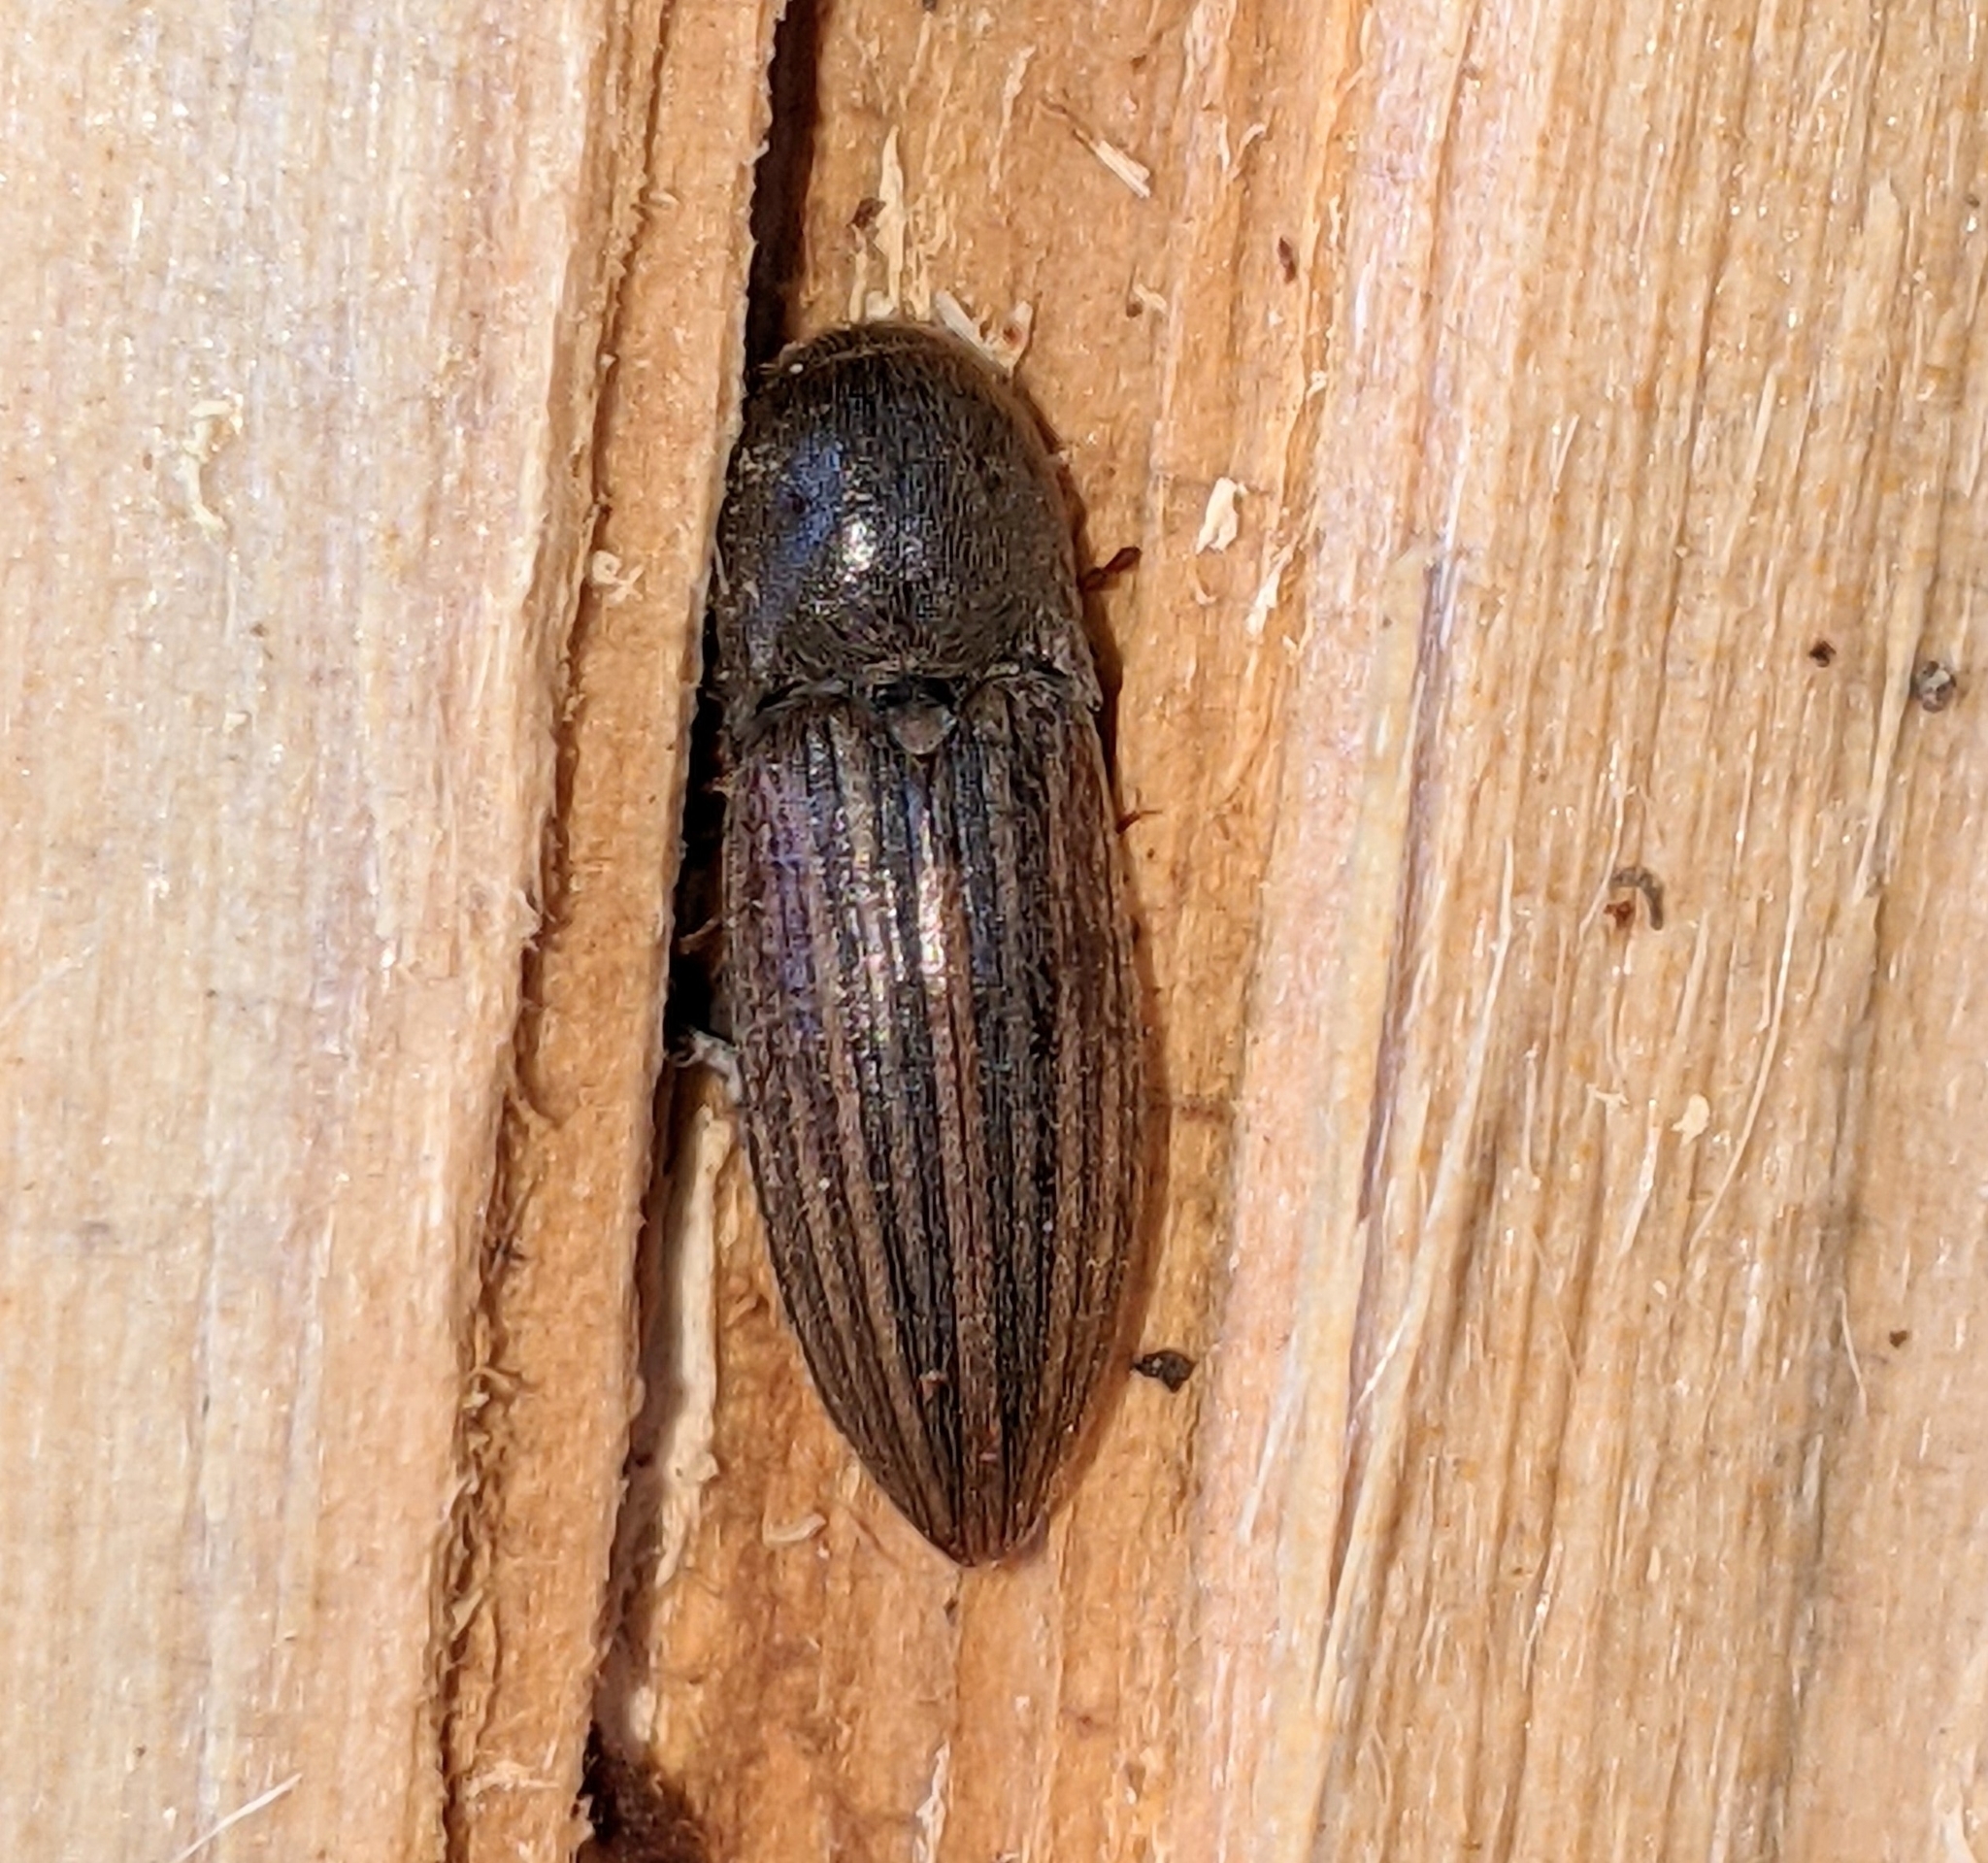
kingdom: Animalia
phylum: Arthropoda
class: Insecta
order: Coleoptera
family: Elateridae
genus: Agriotes
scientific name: Agriotes lineatus
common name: Lined click beetle
